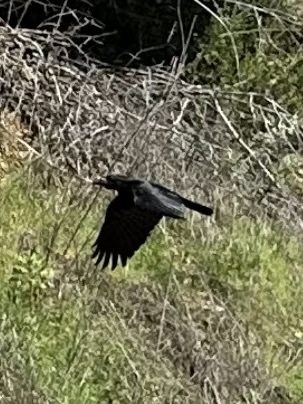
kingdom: Animalia
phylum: Chordata
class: Aves
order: Passeriformes
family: Corvidae
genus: Corvus
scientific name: Corvus brachyrhynchos
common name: American crow
